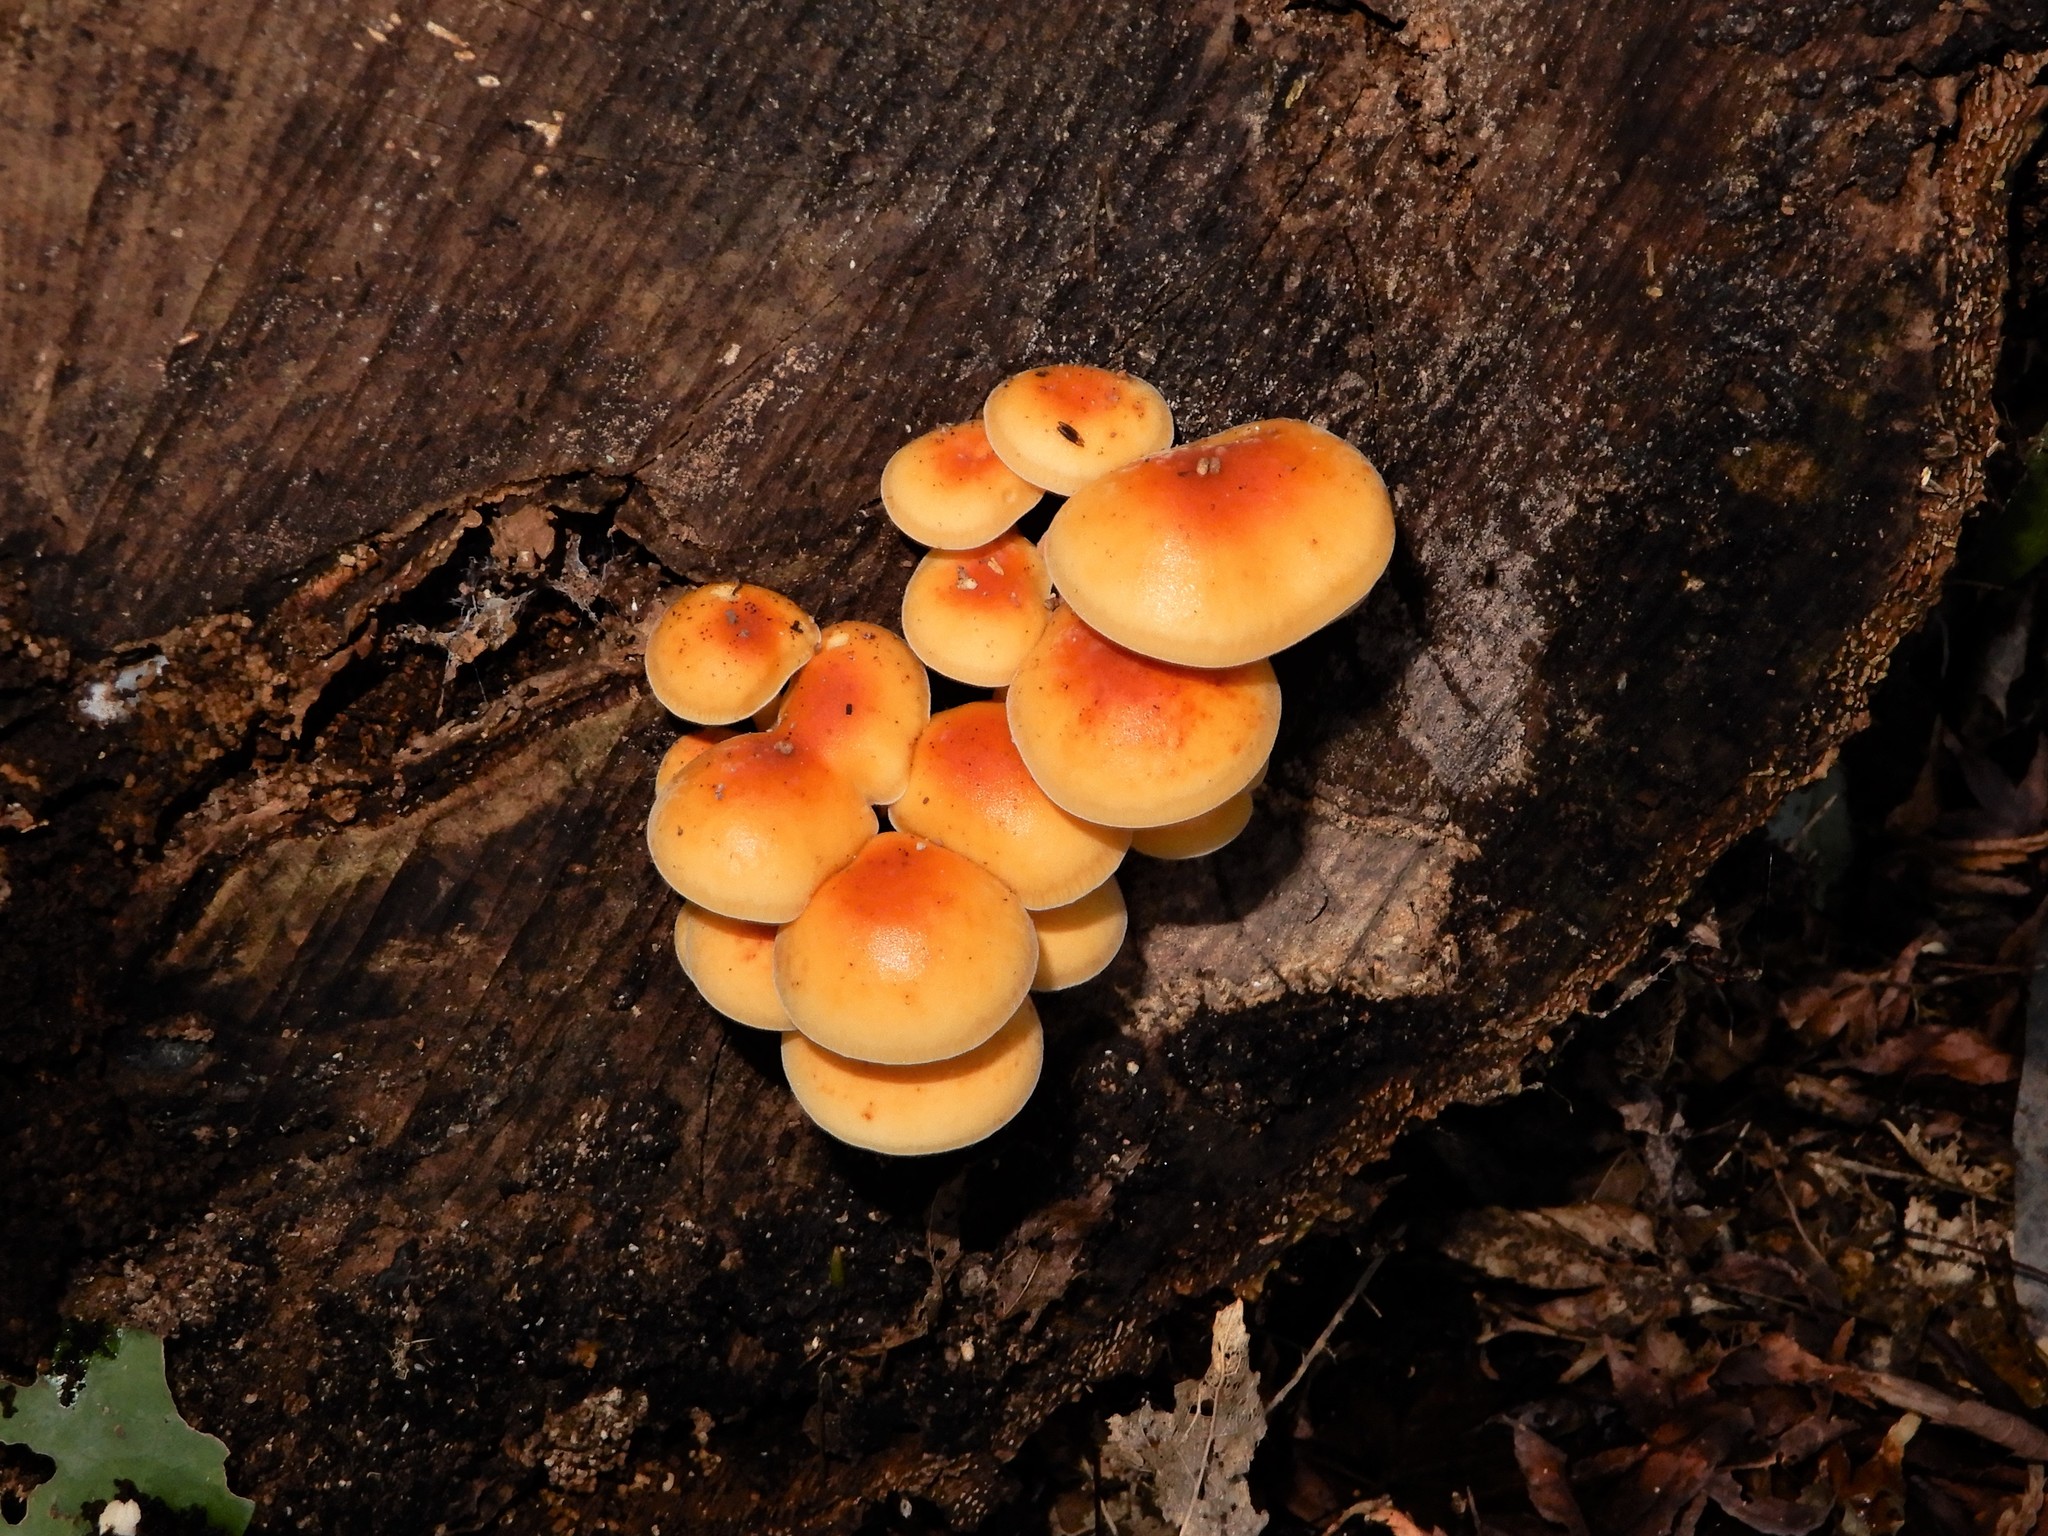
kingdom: Fungi
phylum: Basidiomycota
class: Agaricomycetes
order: Agaricales
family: Physalacriaceae
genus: Flammulina
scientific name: Flammulina velutipes
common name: Velvet shank
